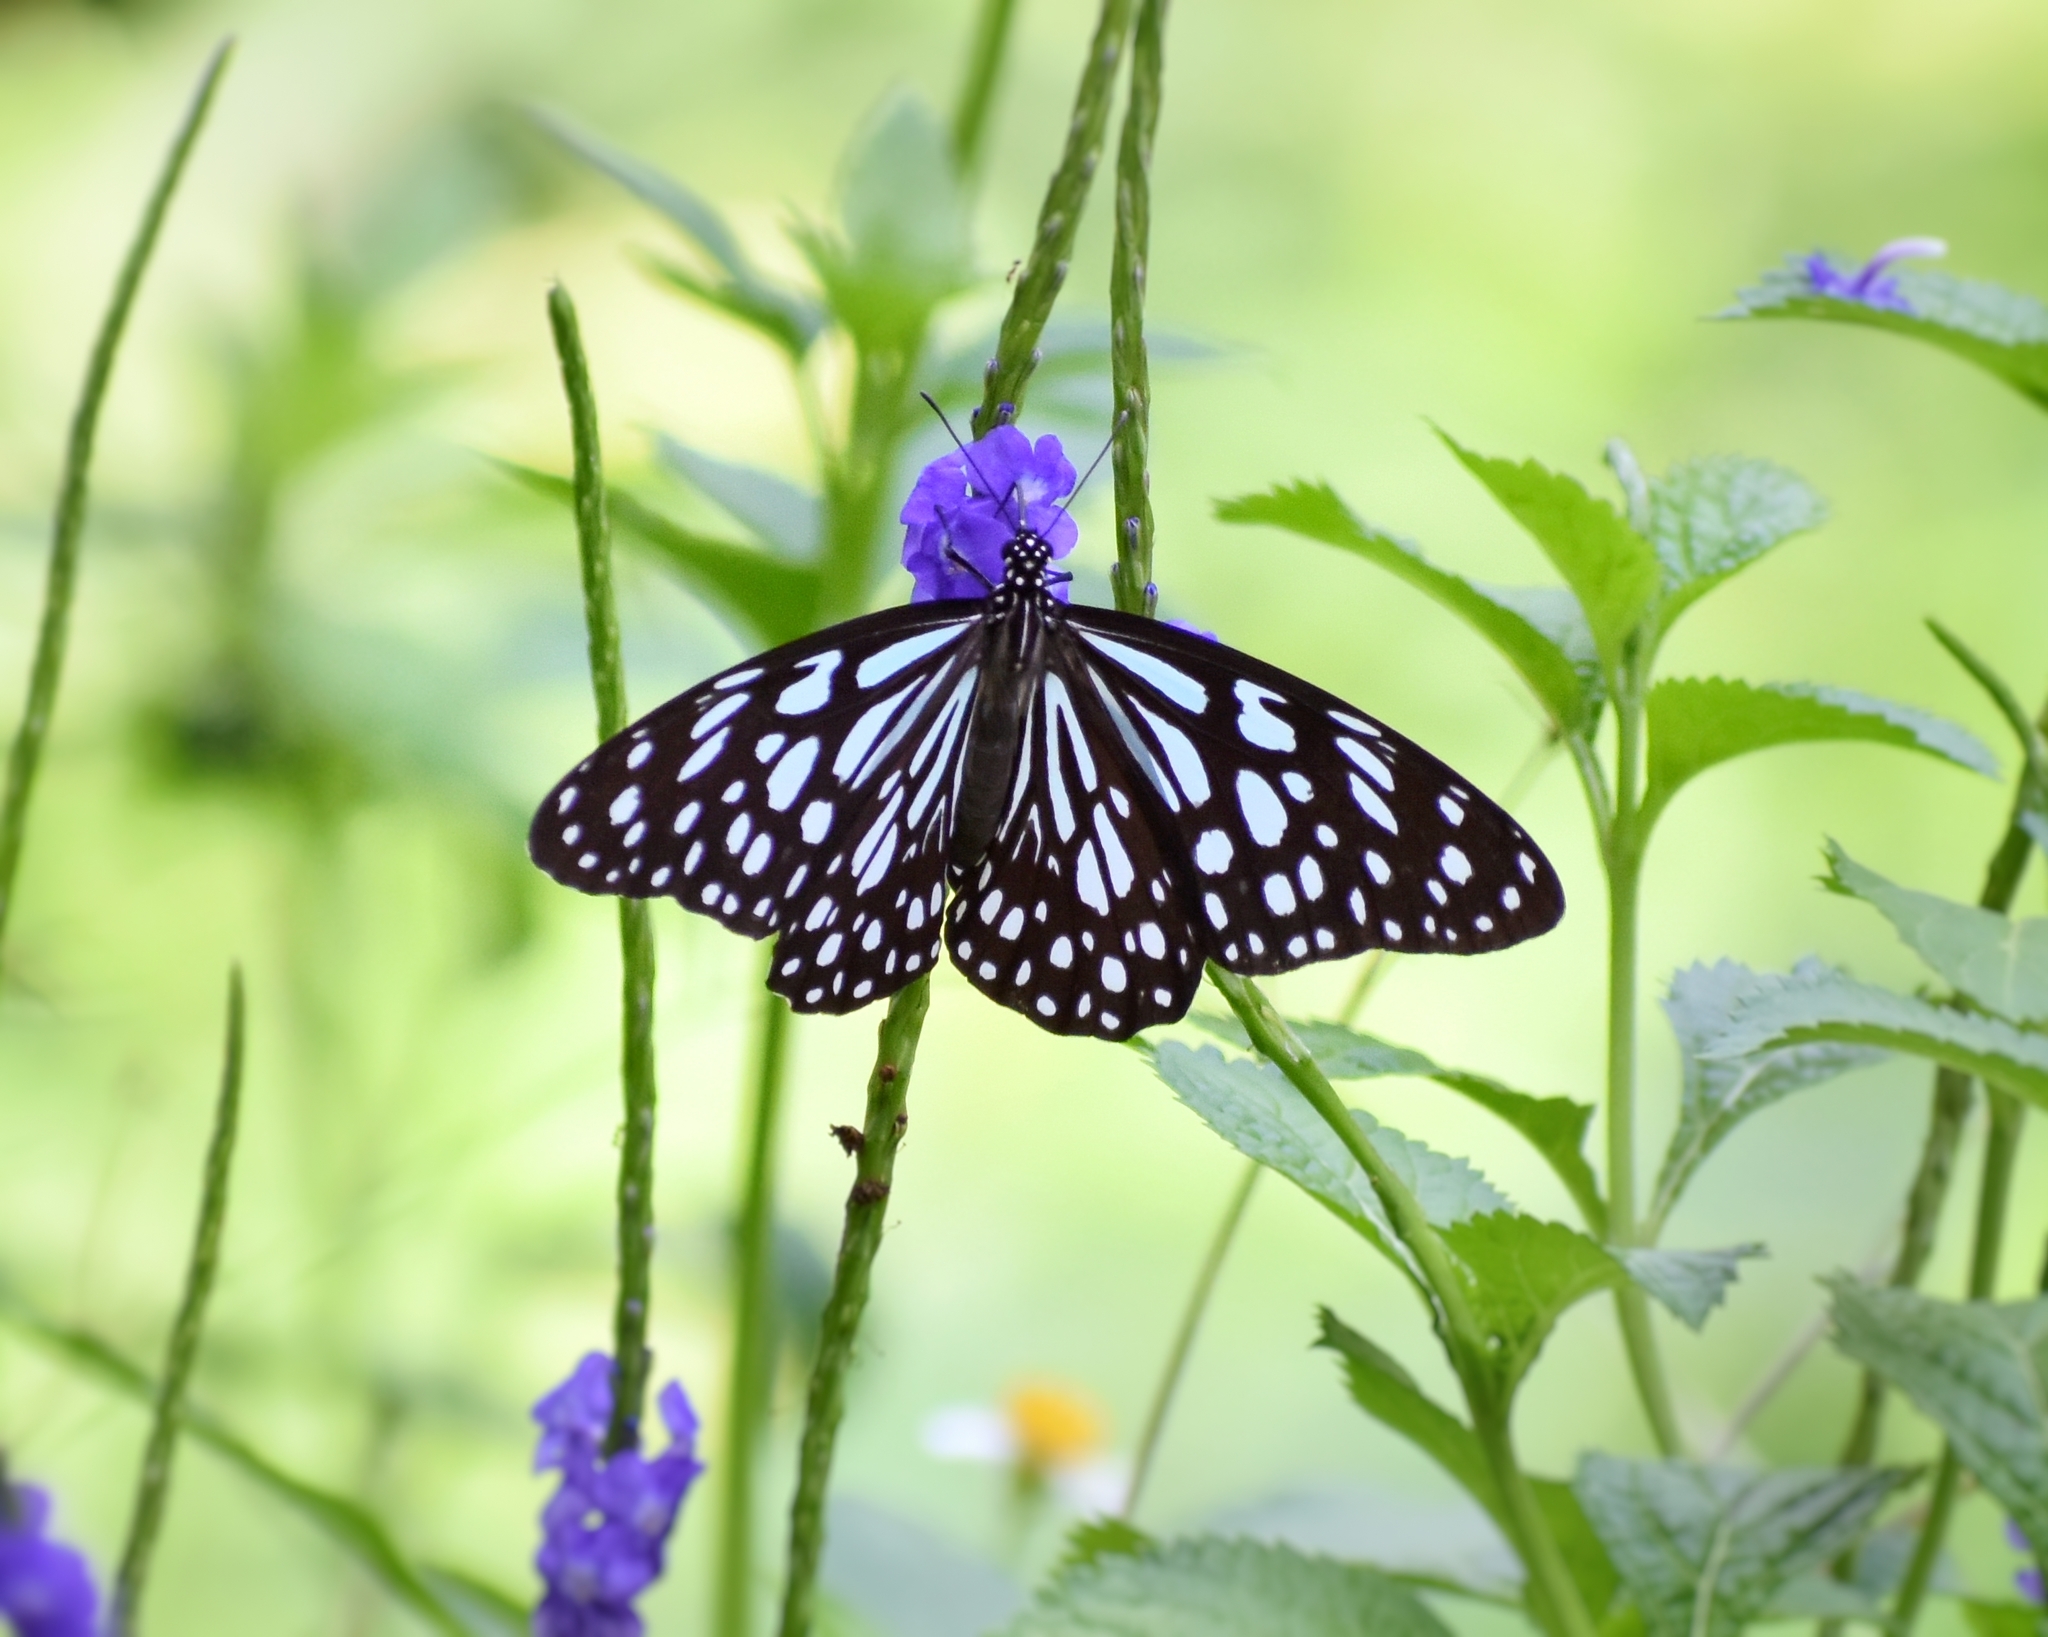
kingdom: Animalia
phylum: Arthropoda
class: Insecta
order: Lepidoptera
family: Nymphalidae
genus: Tirumala
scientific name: Tirumala limniace
